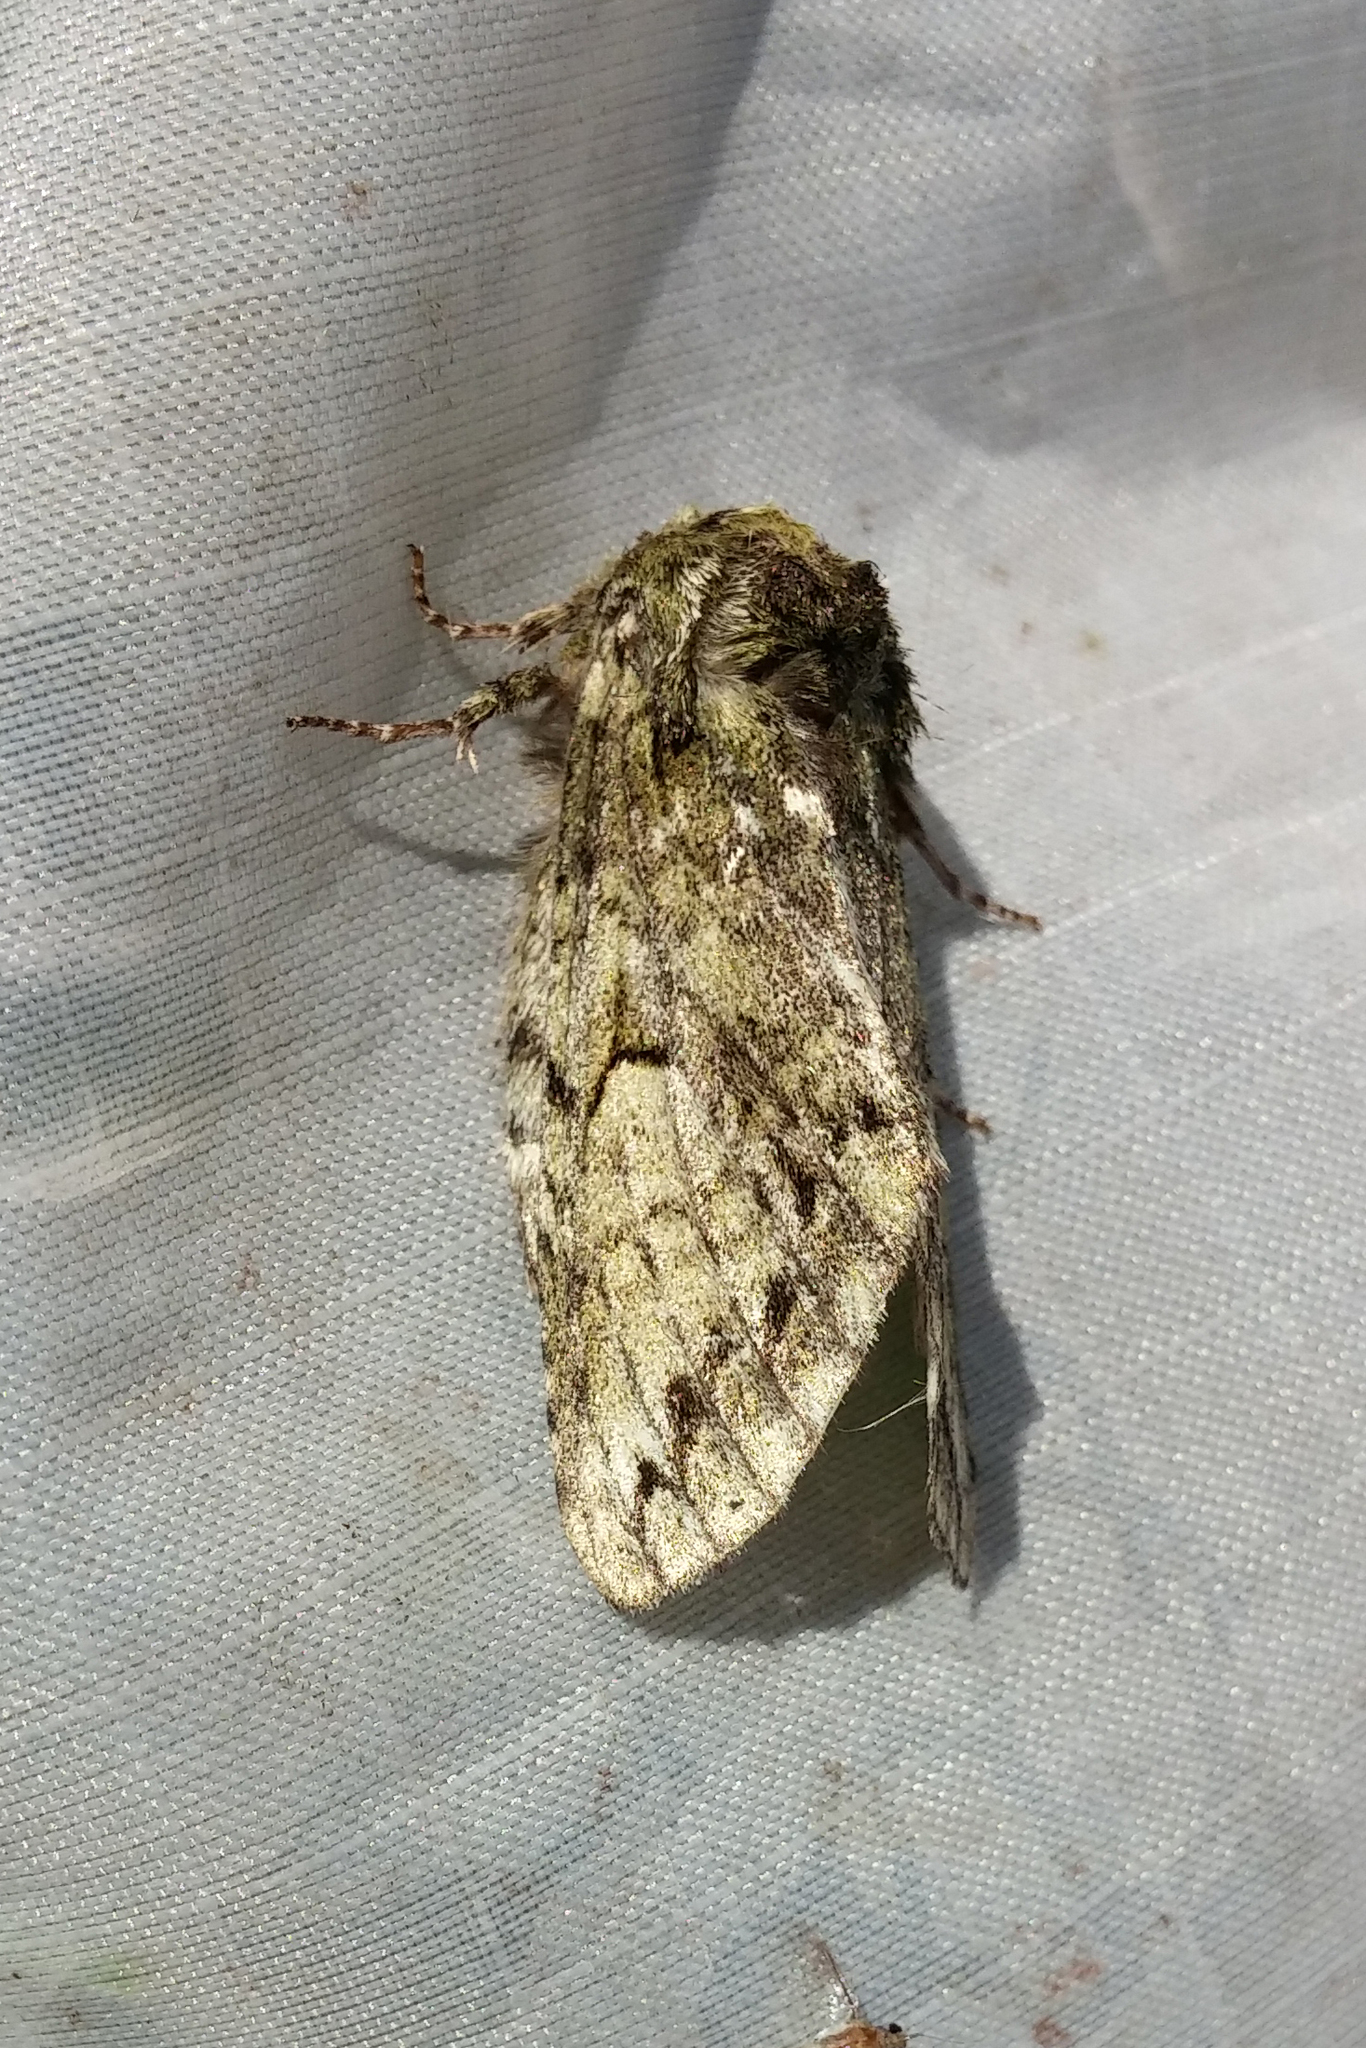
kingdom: Animalia
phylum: Arthropoda
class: Insecta
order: Lepidoptera
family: Notodontidae
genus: Heterocampa
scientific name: Heterocampa
